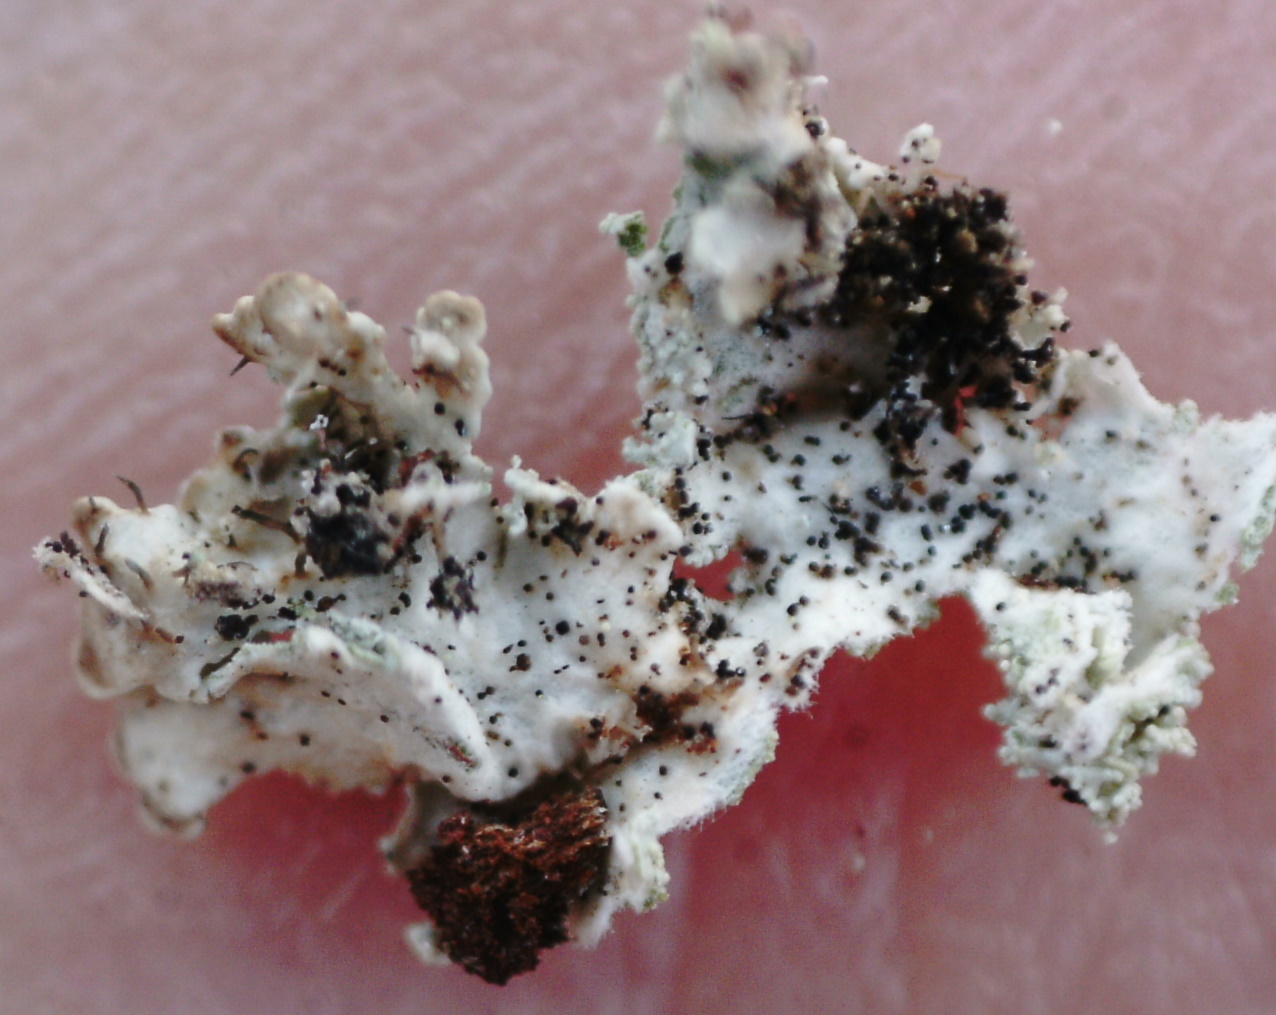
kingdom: Fungi
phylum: Ascomycota
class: Lecanoromycetes
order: Lecanorales
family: Parmeliaceae
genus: Imshaugia
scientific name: Imshaugia aleurites
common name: Salted starburst lichen
